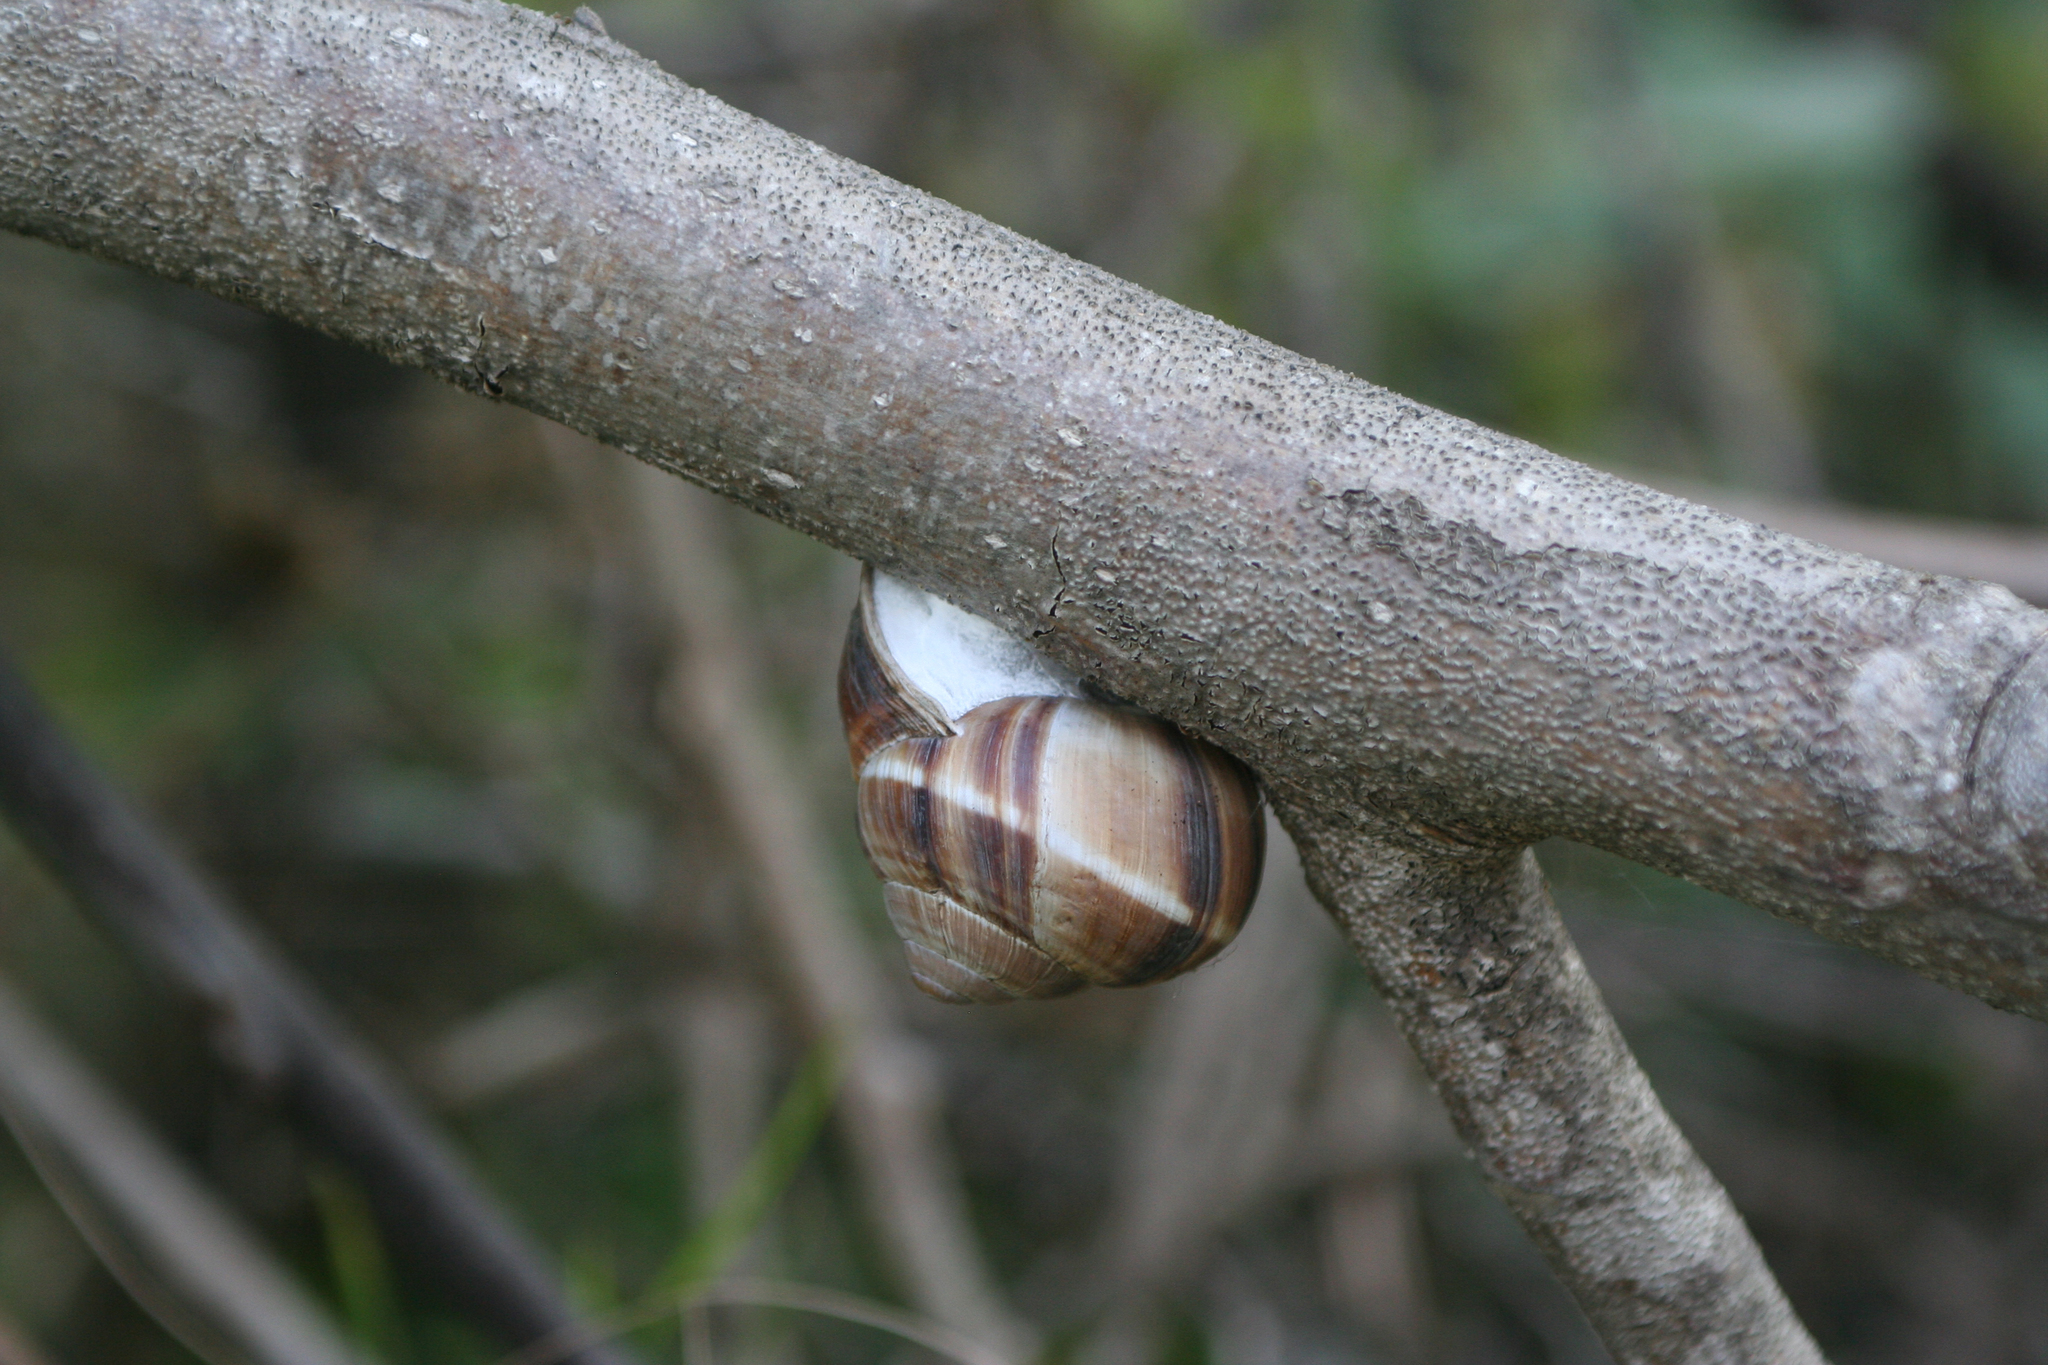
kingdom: Animalia
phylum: Mollusca
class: Gastropoda
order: Stylommatophora
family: Helicidae
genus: Helix
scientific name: Helix lucorum
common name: Turkish snail
